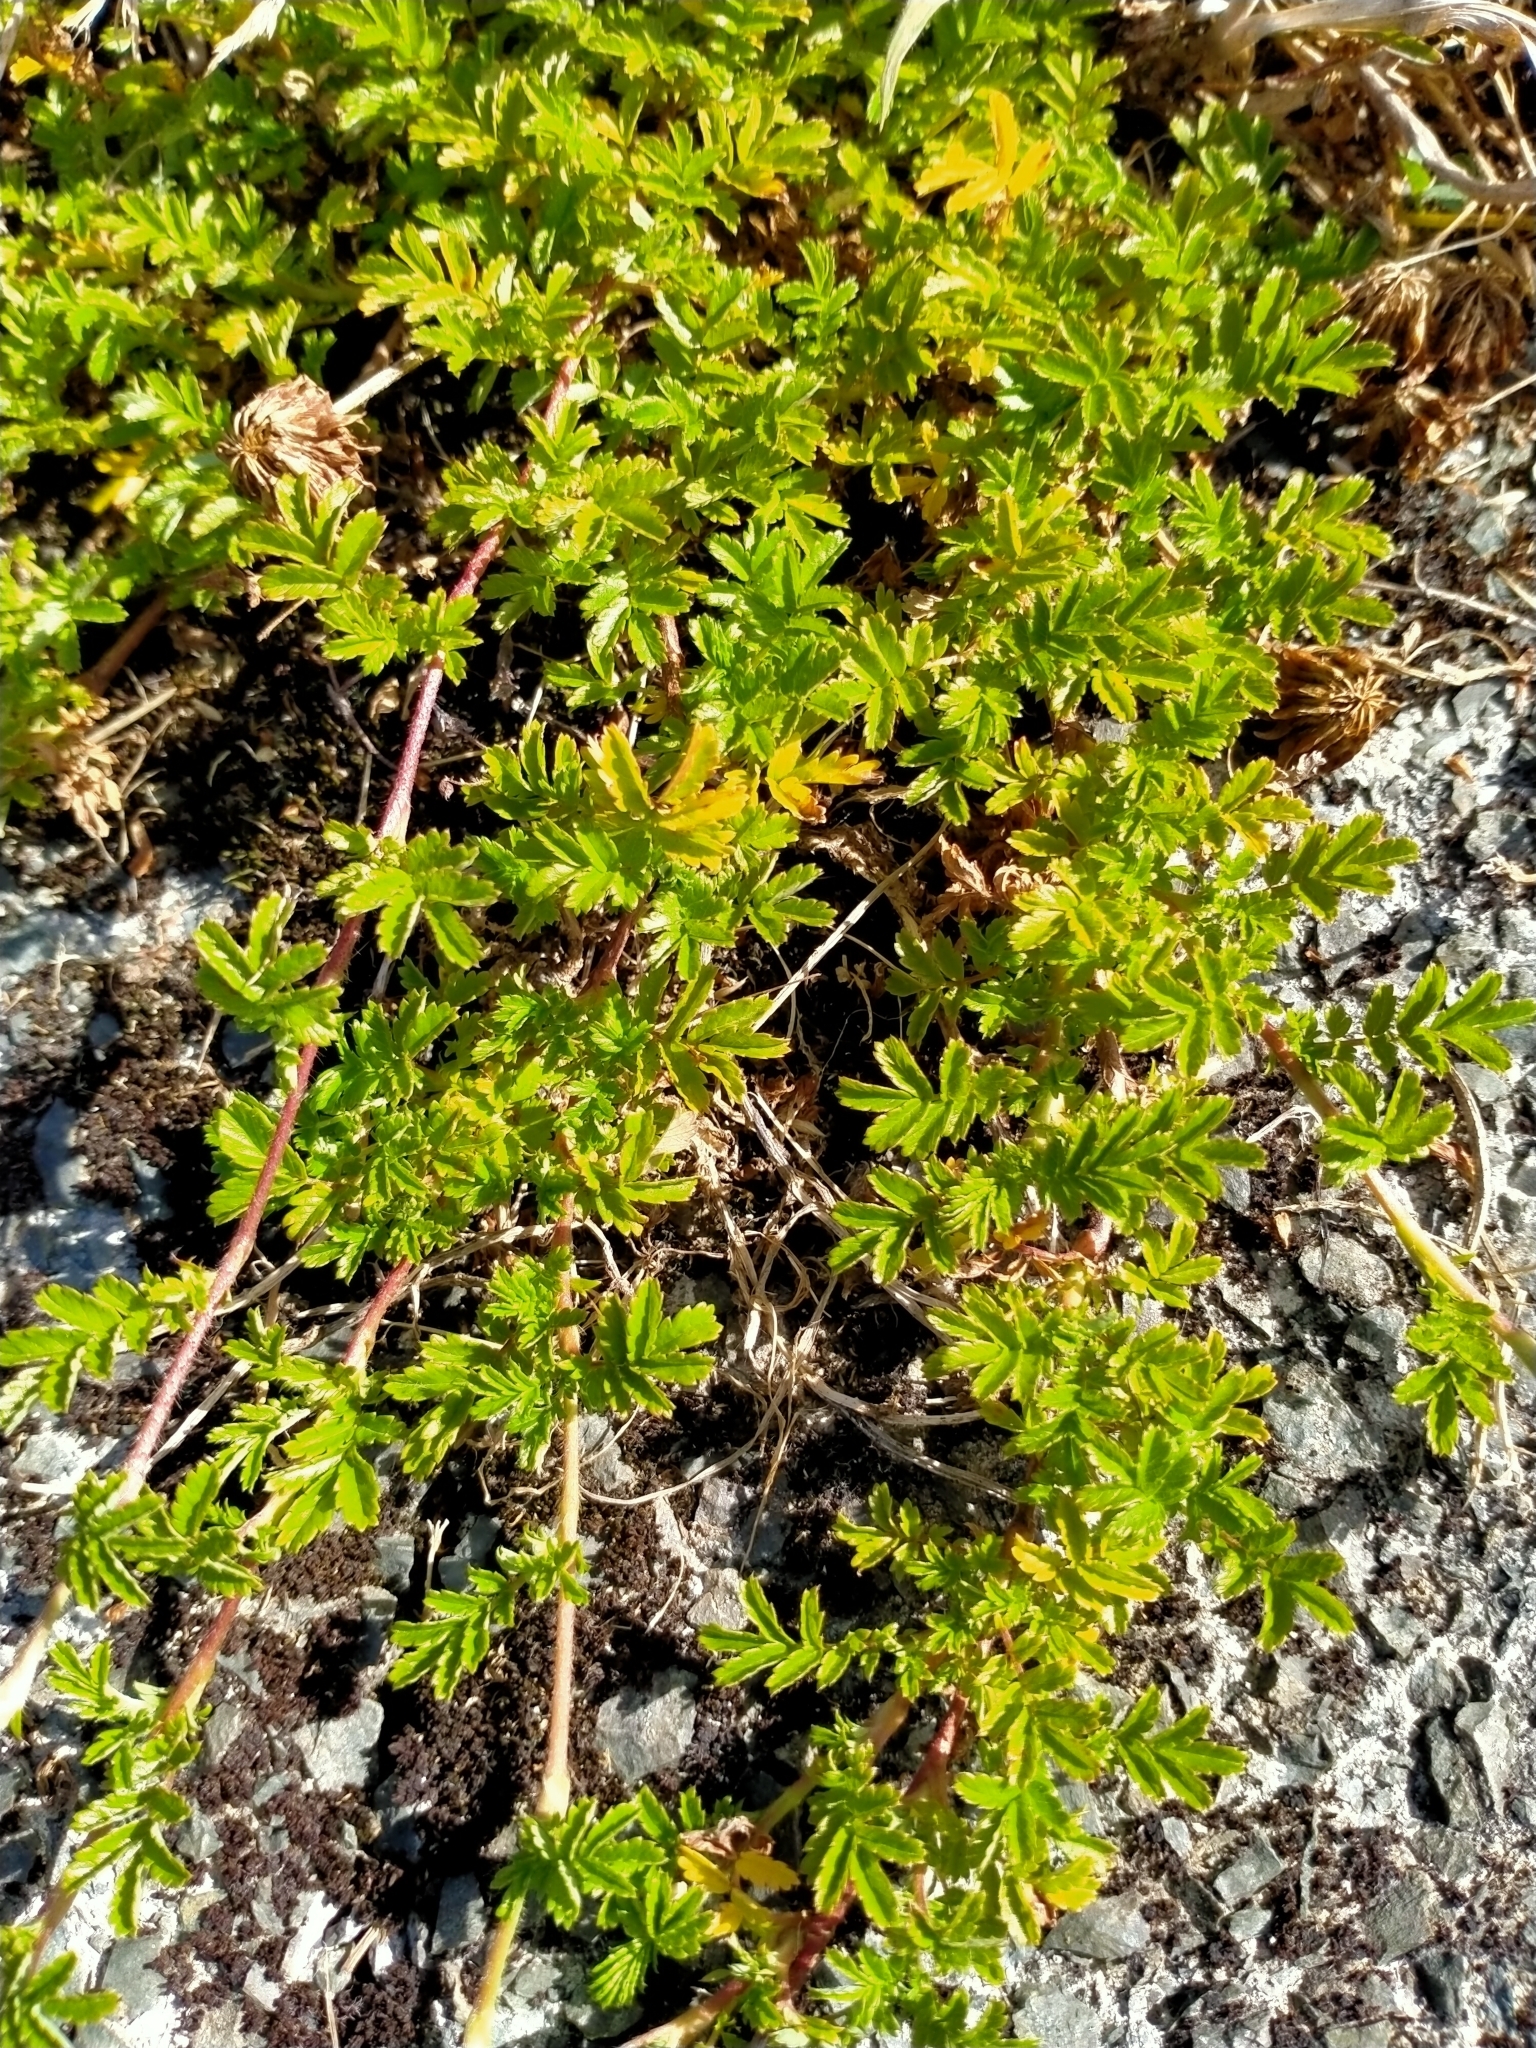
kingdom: Plantae
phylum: Tracheophyta
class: Magnoliopsida
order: Rosales
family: Rosaceae
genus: Acaena
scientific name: Acaena novae-zelandiae
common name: Pirri-pirri-bur
